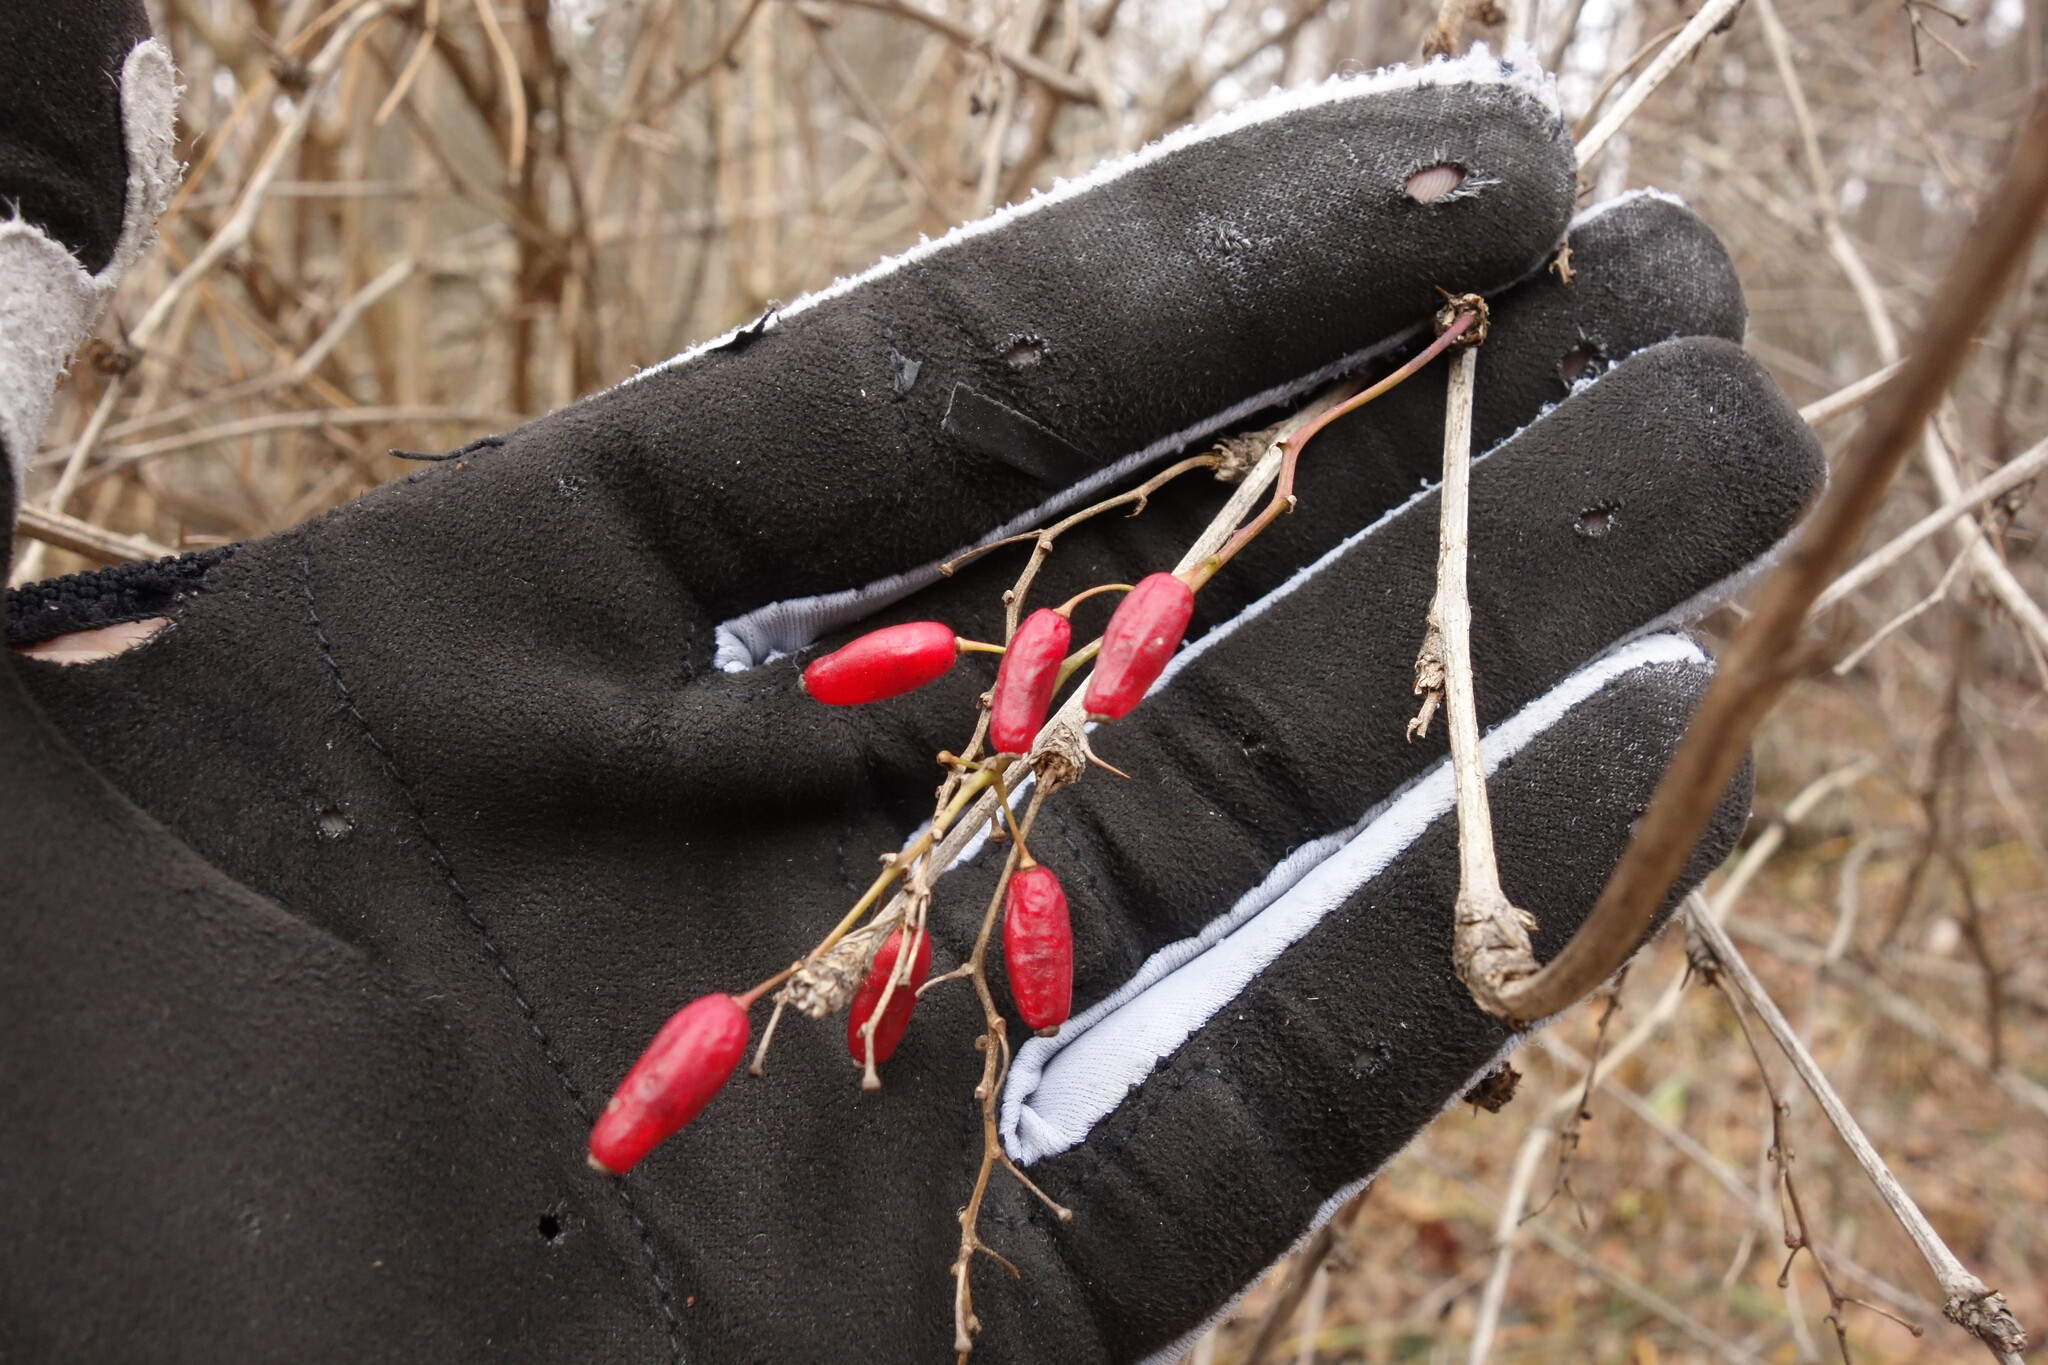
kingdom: Plantae
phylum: Tracheophyta
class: Magnoliopsida
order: Ranunculales
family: Berberidaceae
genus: Berberis
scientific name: Berberis vulgaris
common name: Barberry
